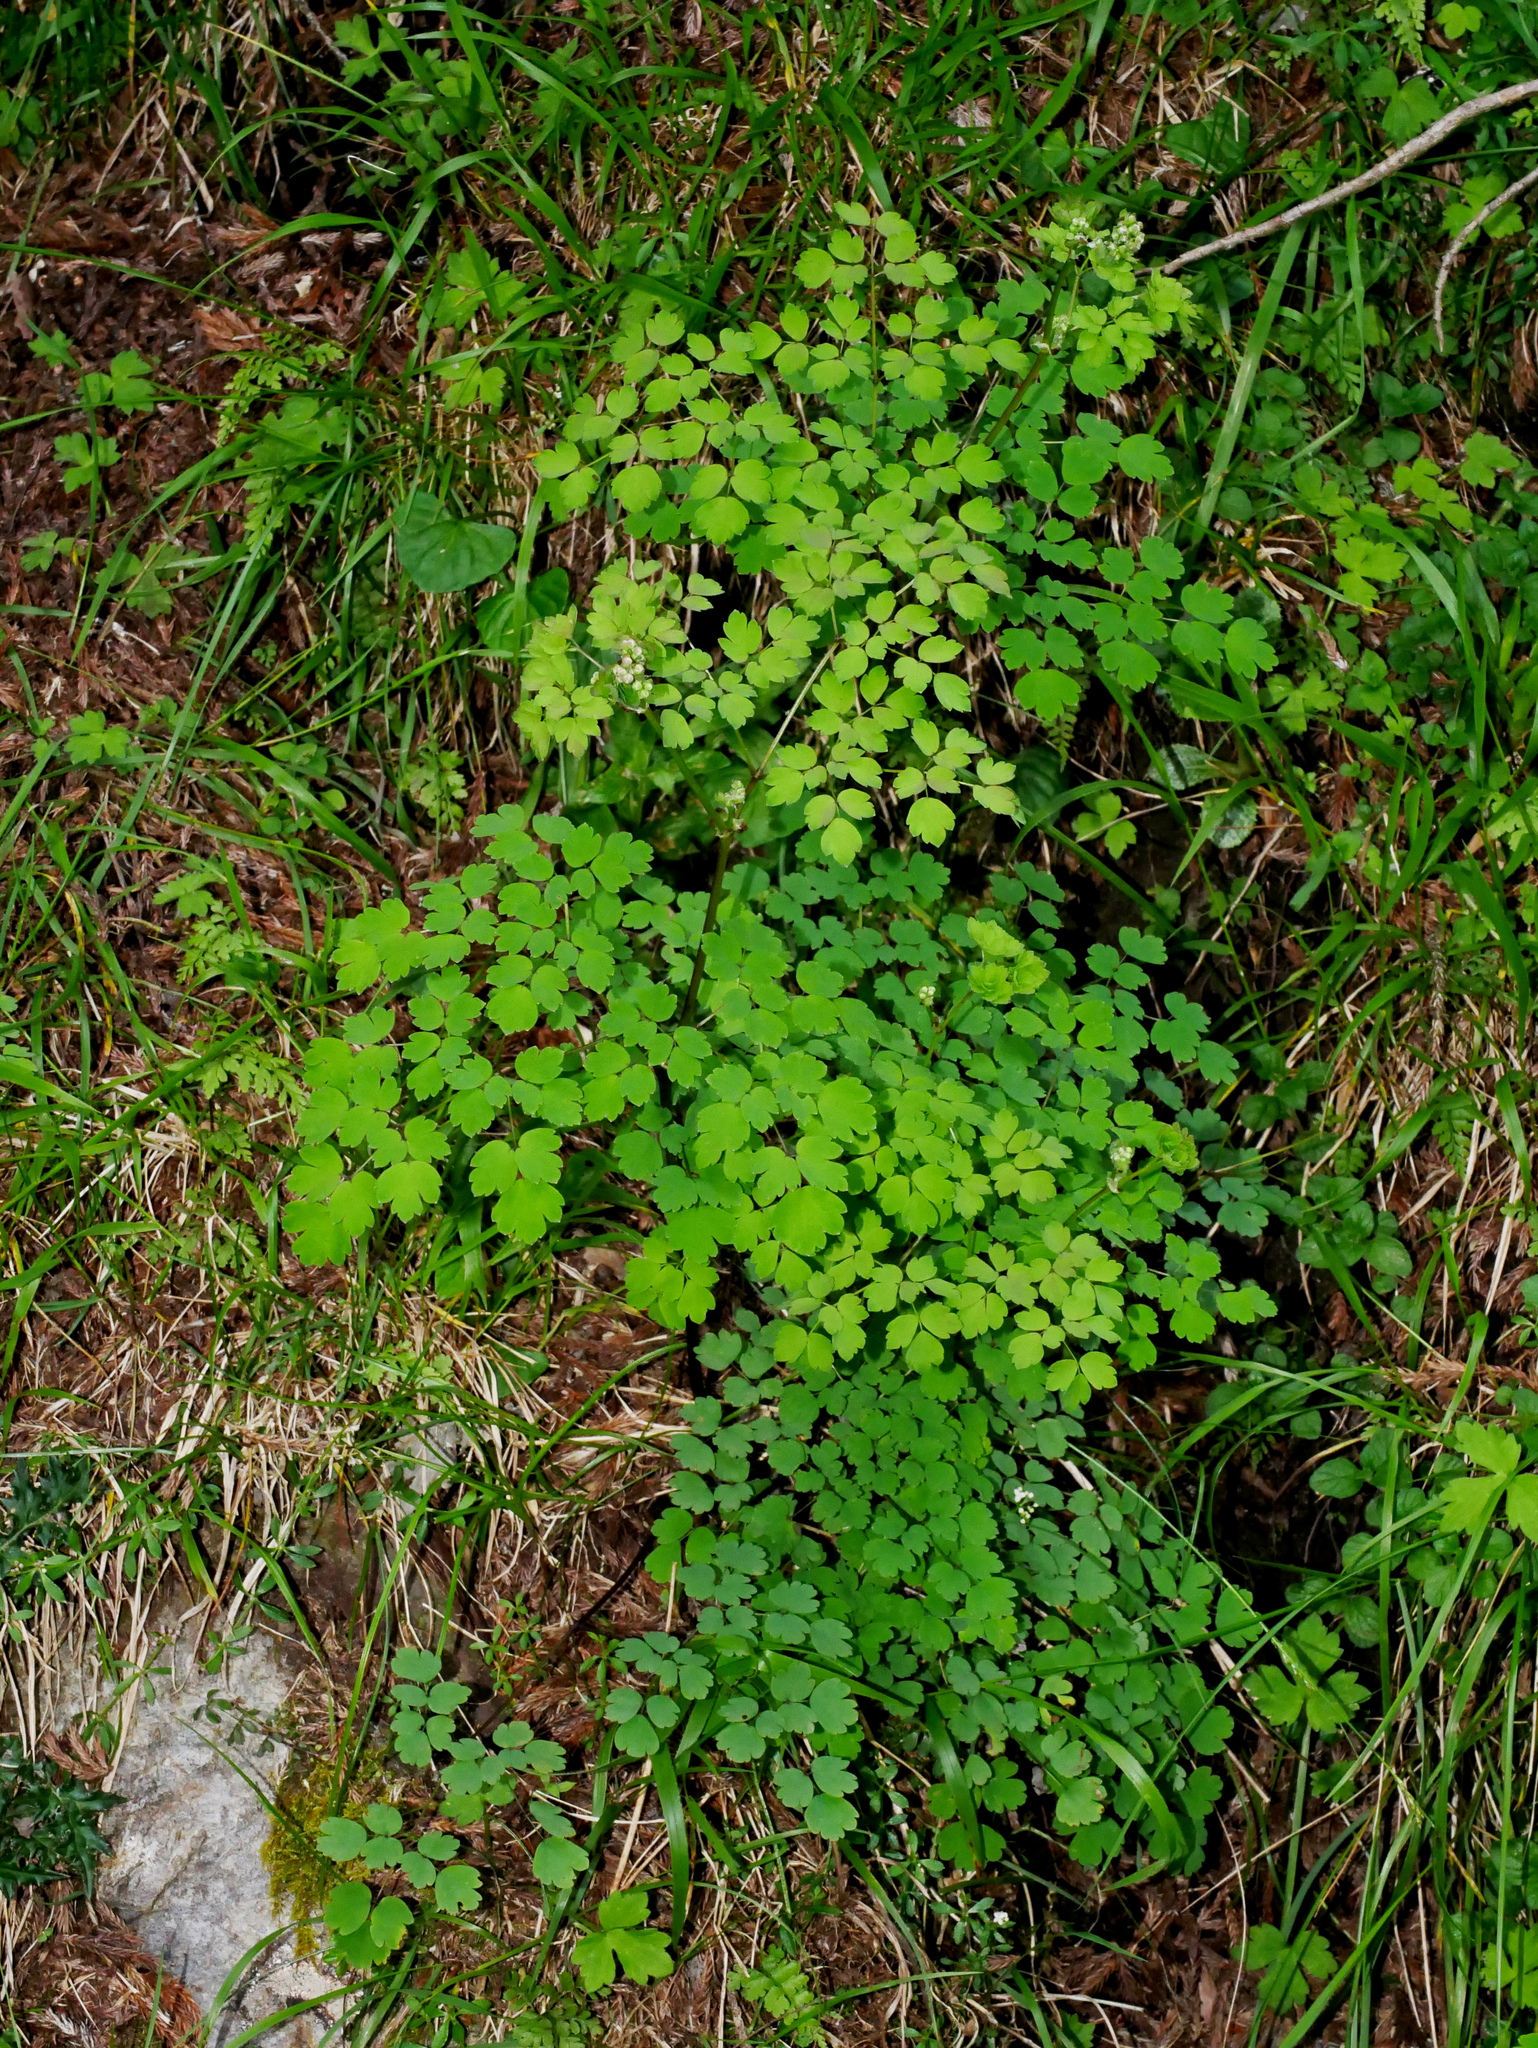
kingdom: Plantae
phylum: Tracheophyta
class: Magnoliopsida
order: Ranunculales
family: Ranunculaceae
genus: Thalictrum
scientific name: Thalictrum javanicum
